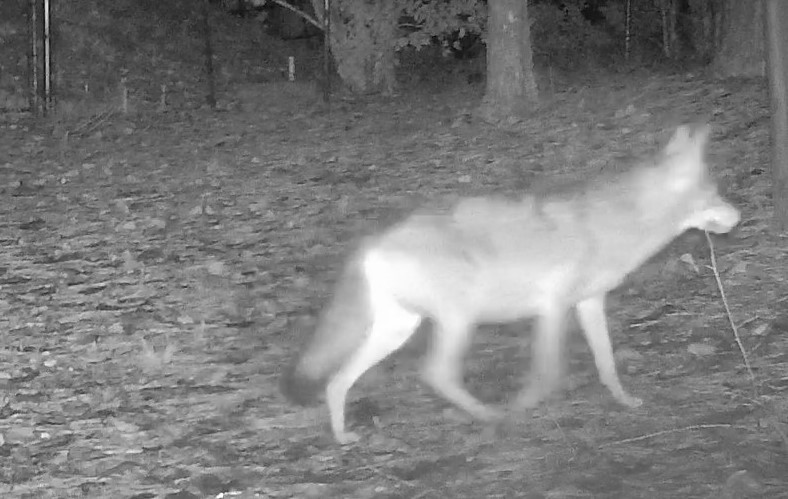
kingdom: Animalia
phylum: Chordata
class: Mammalia
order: Carnivora
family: Canidae
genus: Canis
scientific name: Canis latrans
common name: Coyote
